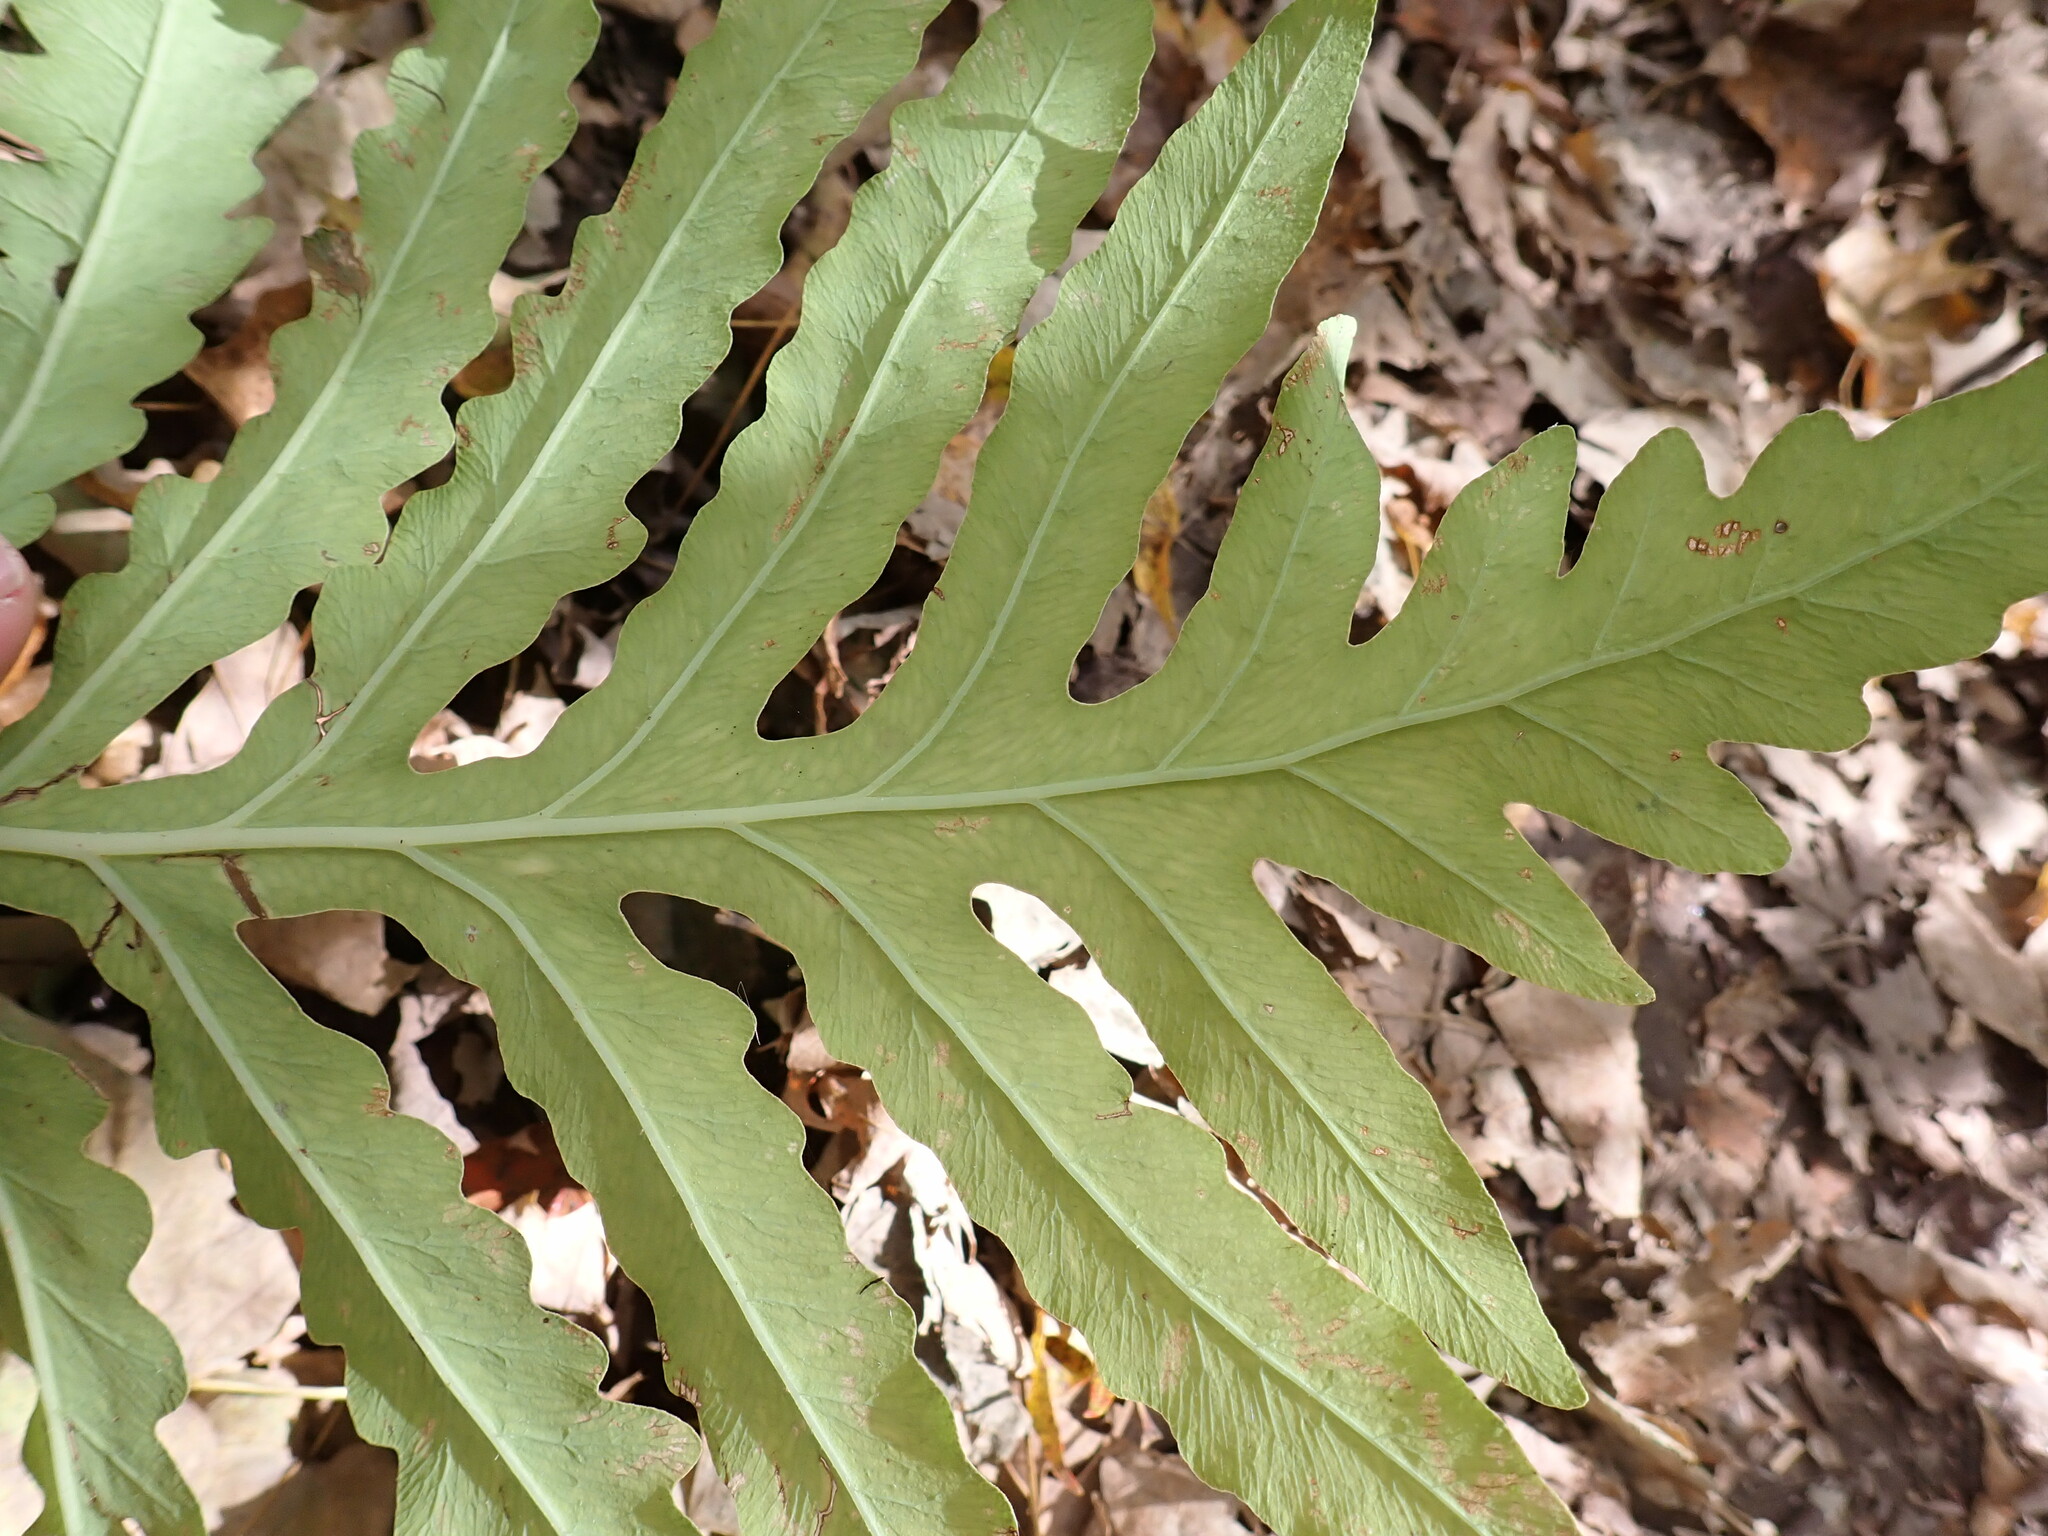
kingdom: Plantae
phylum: Tracheophyta
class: Polypodiopsida
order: Polypodiales
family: Onocleaceae
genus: Onoclea
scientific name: Onoclea sensibilis
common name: Sensitive fern
